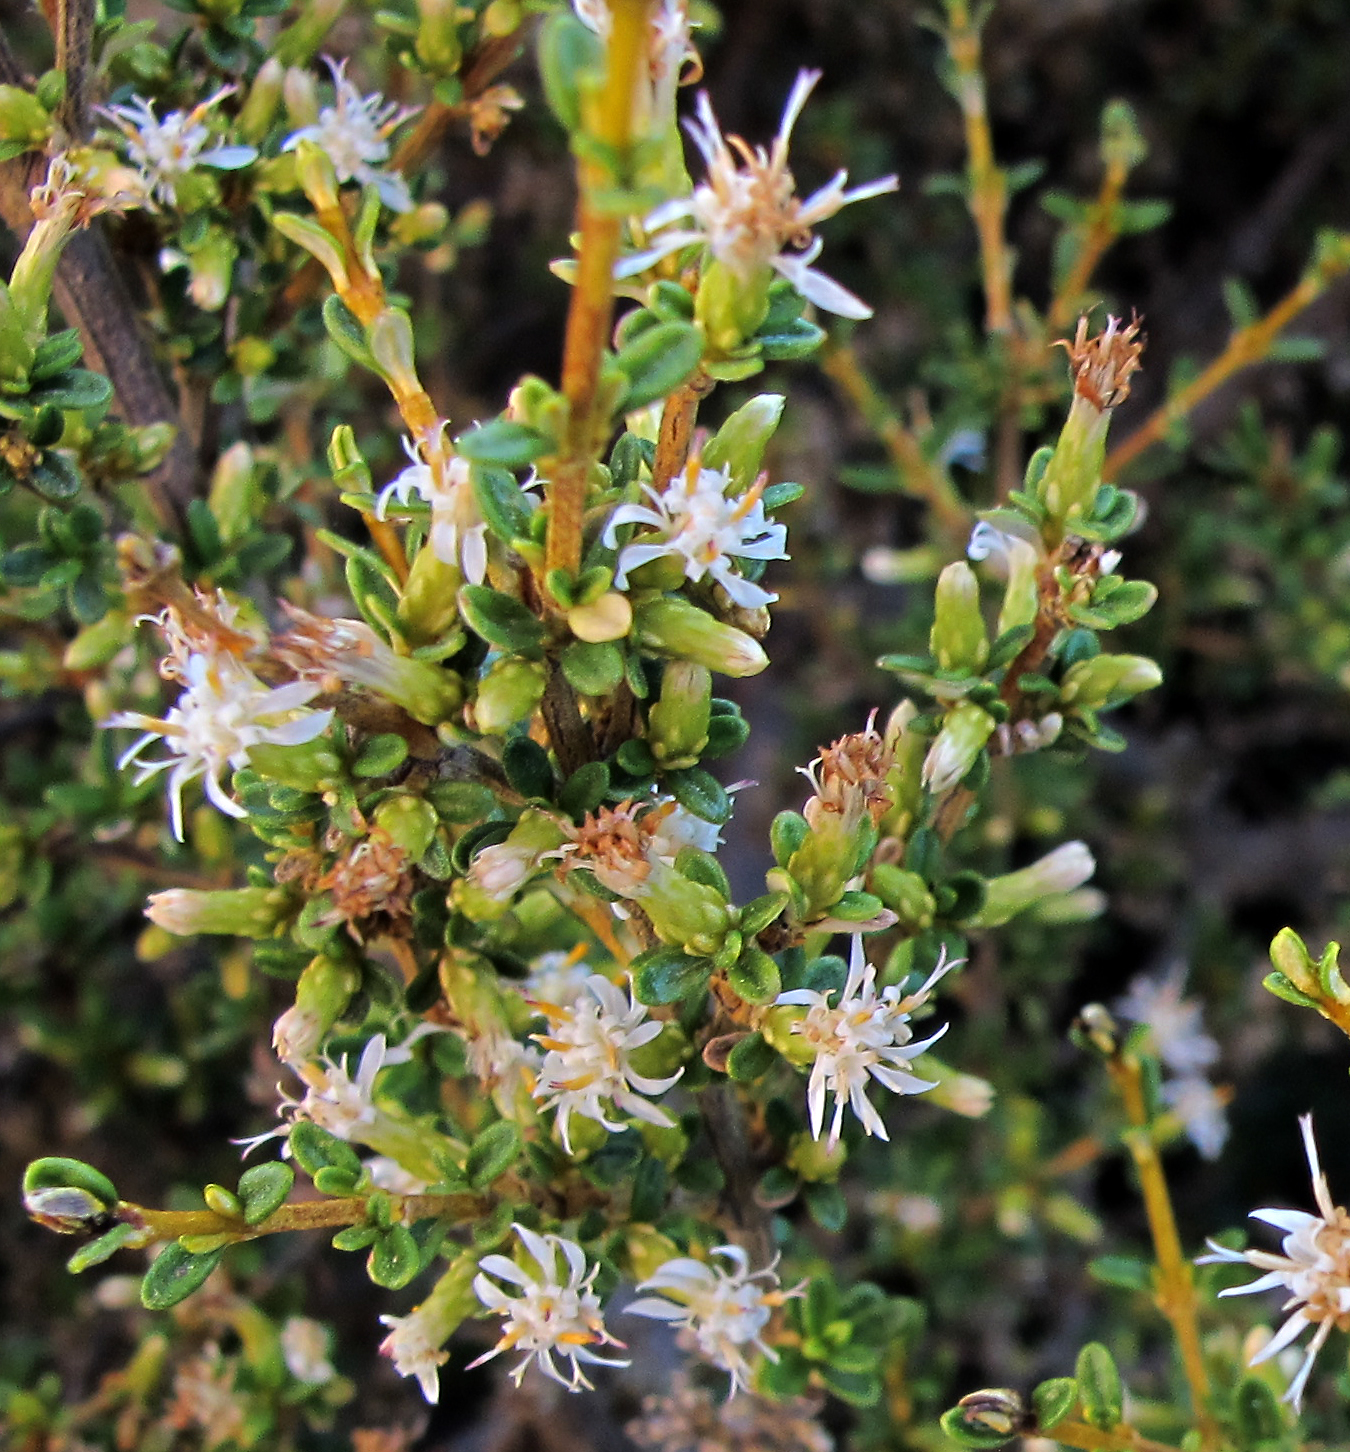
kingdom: Plantae
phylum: Tracheophyta
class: Magnoliopsida
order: Asterales
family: Asteraceae
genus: Olearia
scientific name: Olearia solandri
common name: Coastal daisybush
